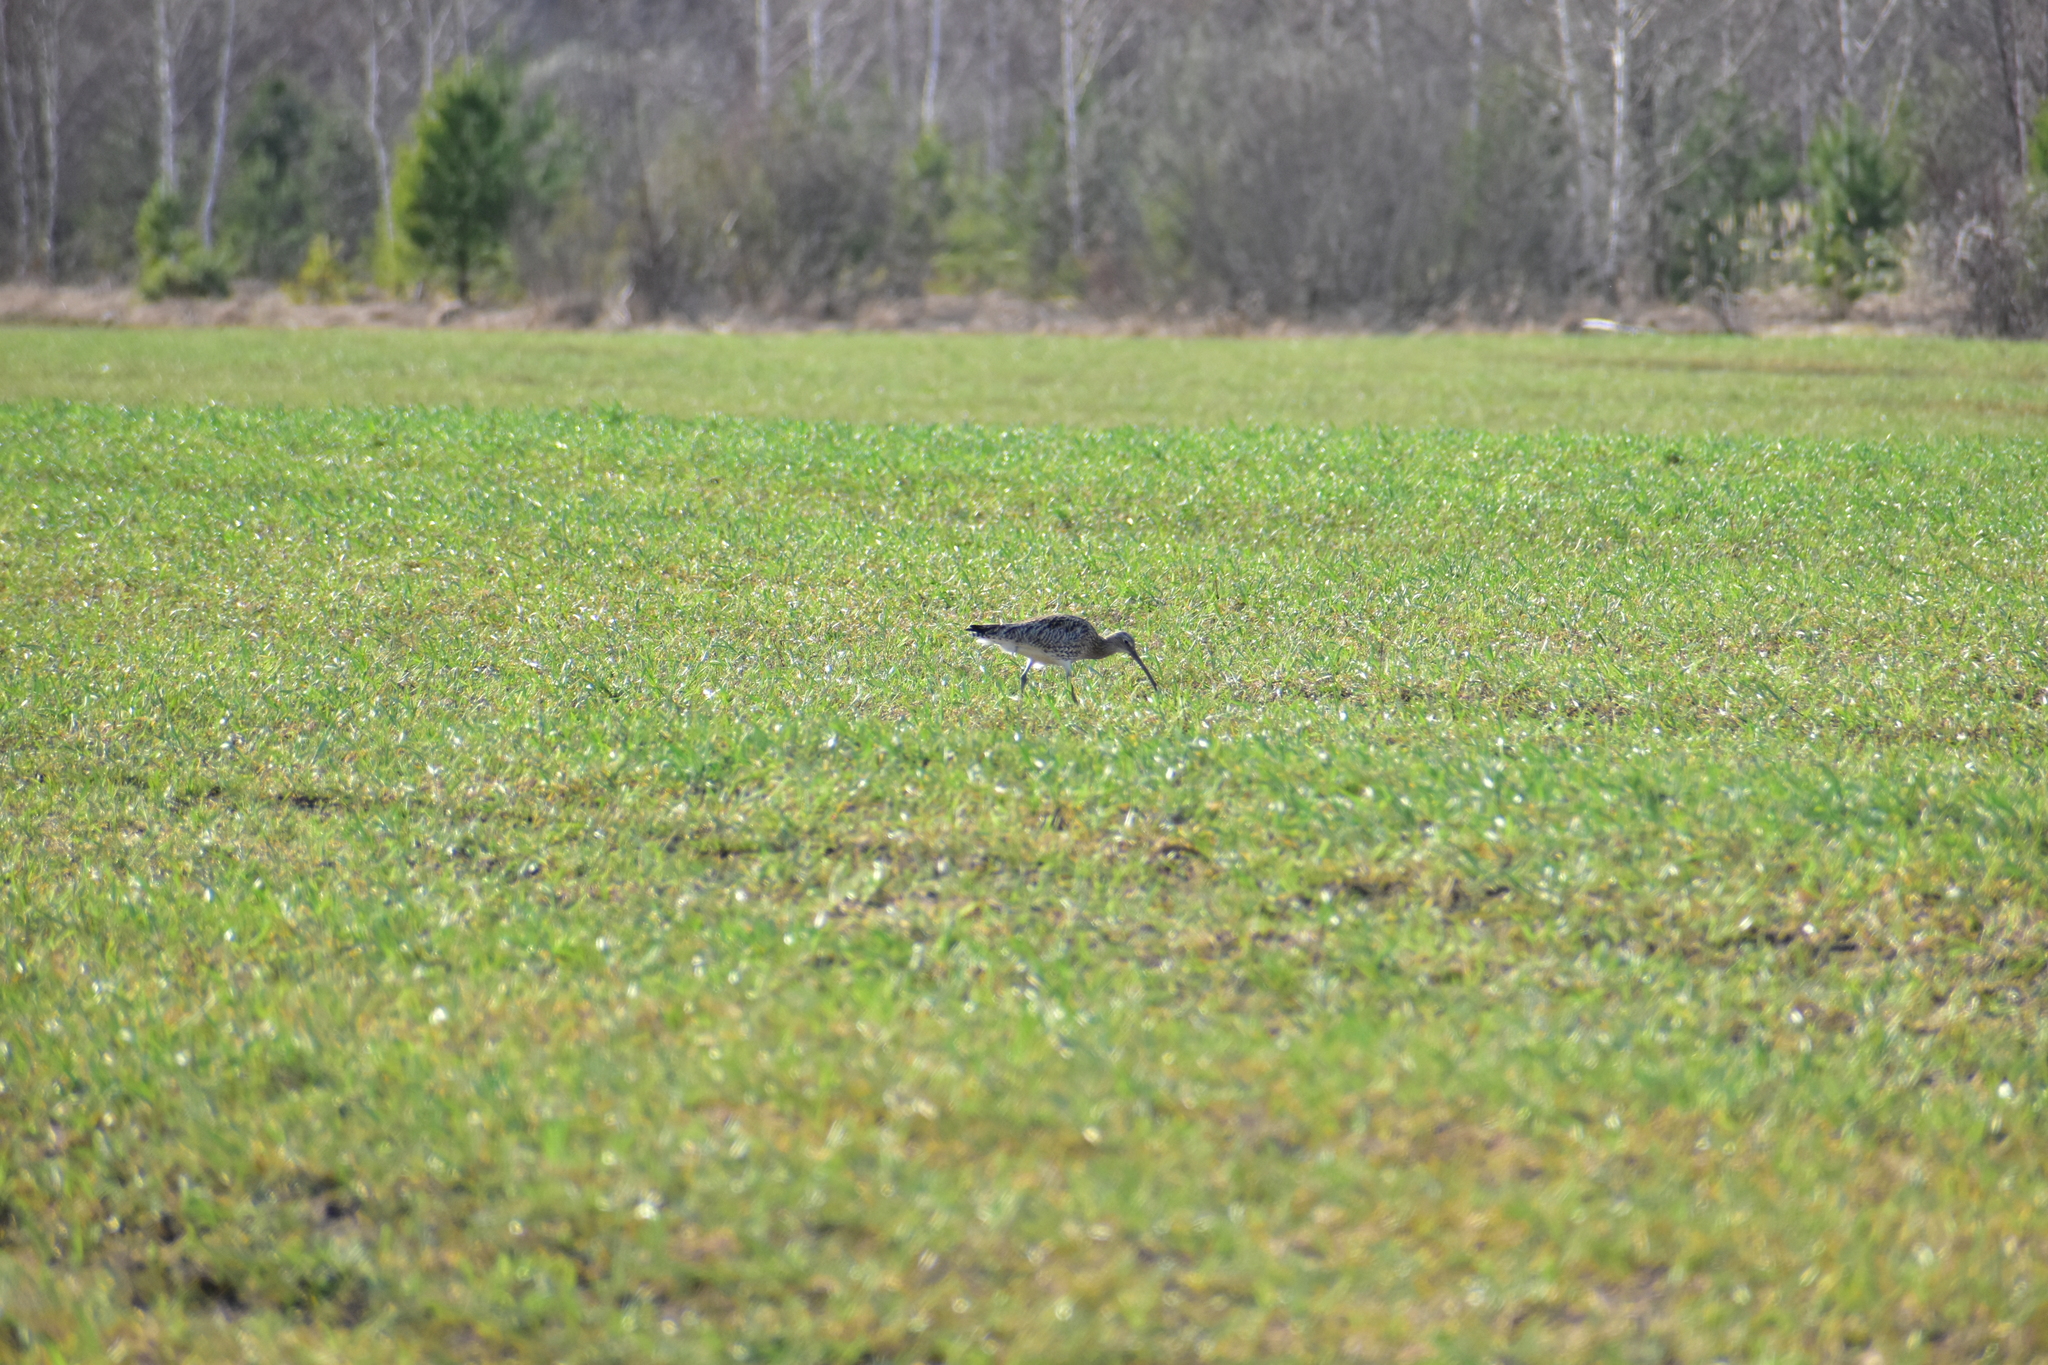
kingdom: Animalia
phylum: Chordata
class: Aves
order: Charadriiformes
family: Scolopacidae
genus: Numenius
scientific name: Numenius arquata
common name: Eurasian curlew
